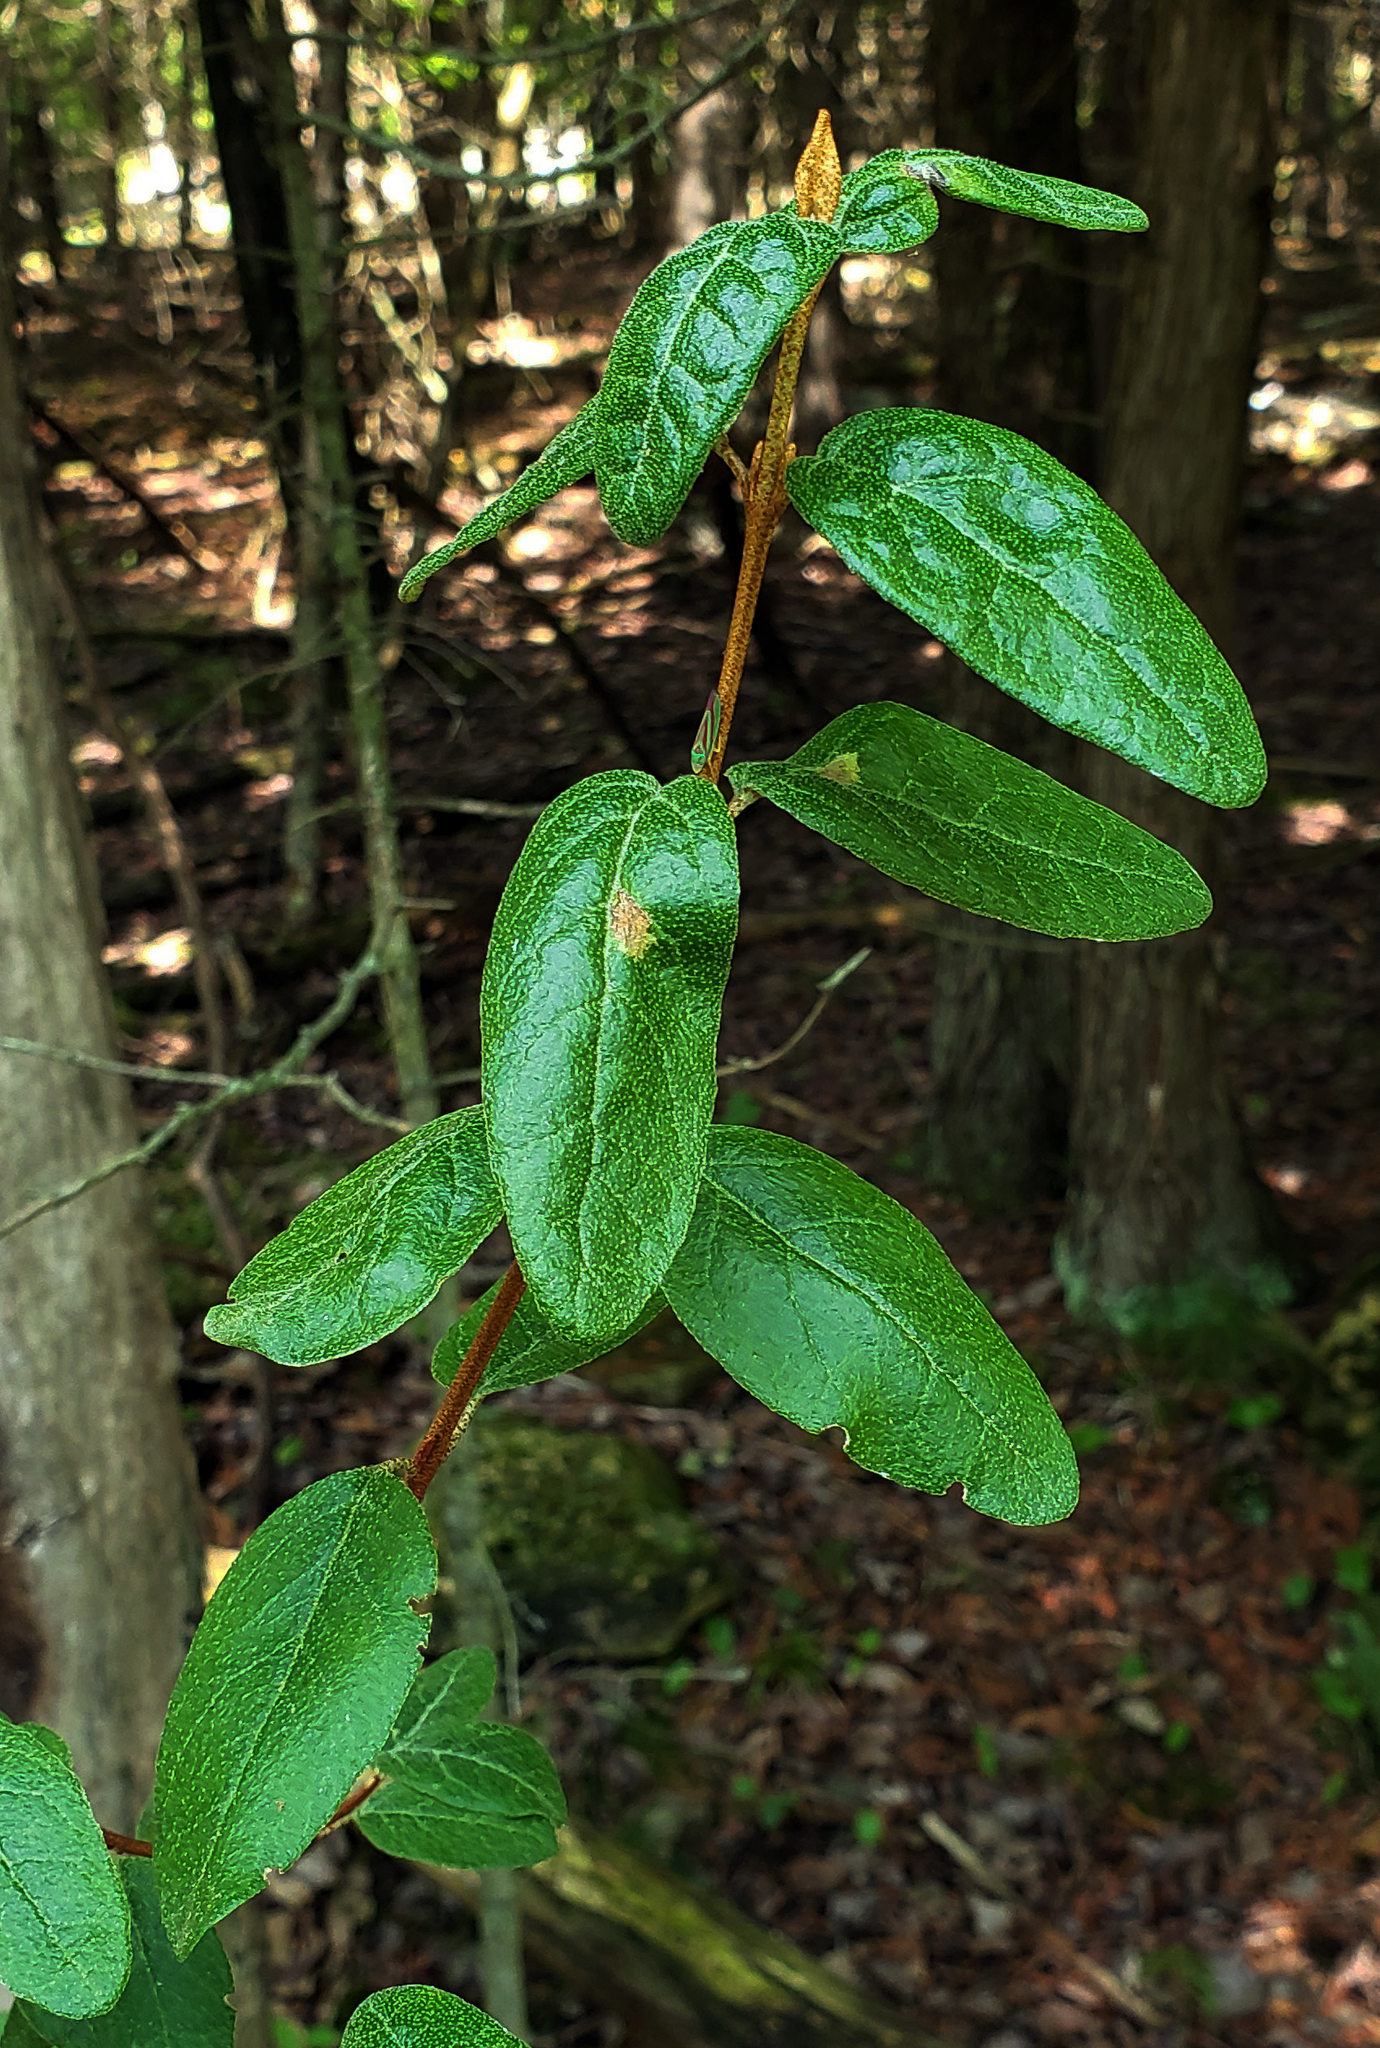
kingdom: Plantae
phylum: Tracheophyta
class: Magnoliopsida
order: Rosales
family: Elaeagnaceae
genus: Shepherdia
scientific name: Shepherdia canadensis
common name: Soapberry
